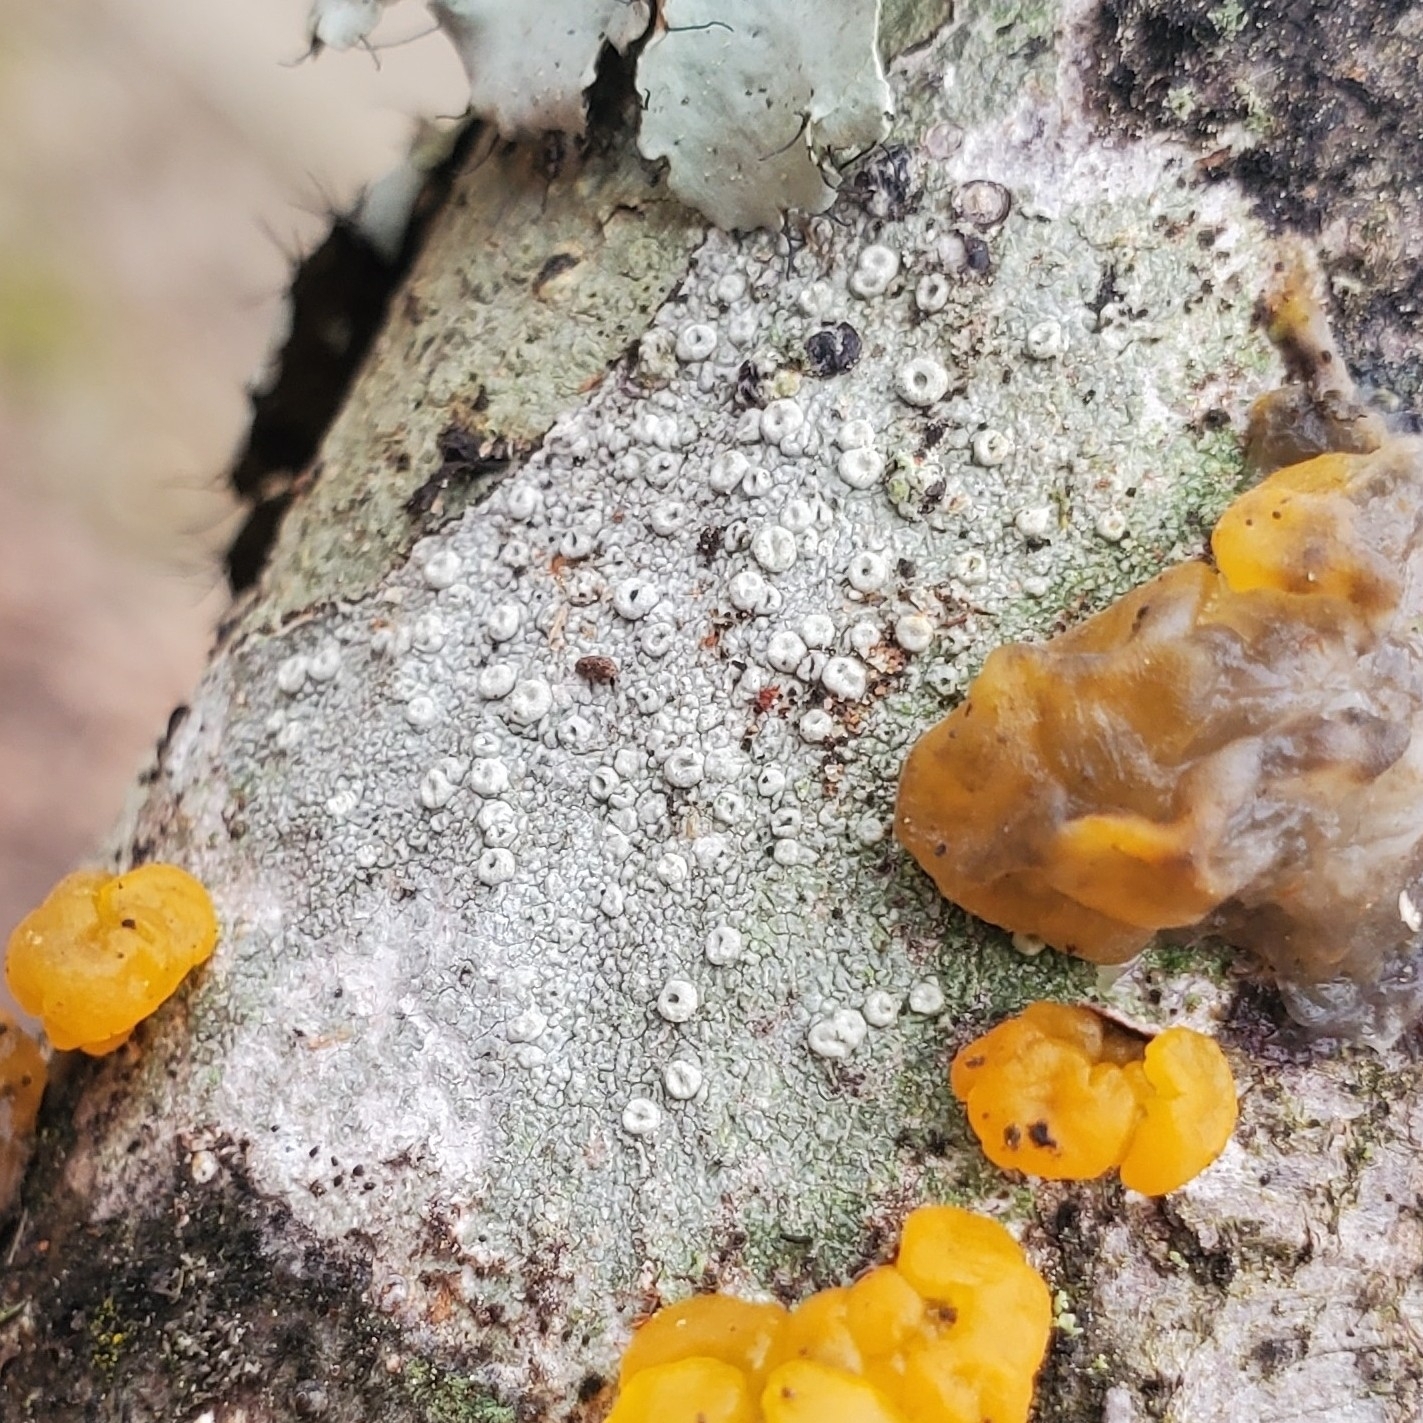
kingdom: Fungi
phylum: Ascomycota
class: Lecanoromycetes
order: Pertusariales
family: Ochrolechiaceae
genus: Ochrolechia
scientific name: Ochrolechia africana
